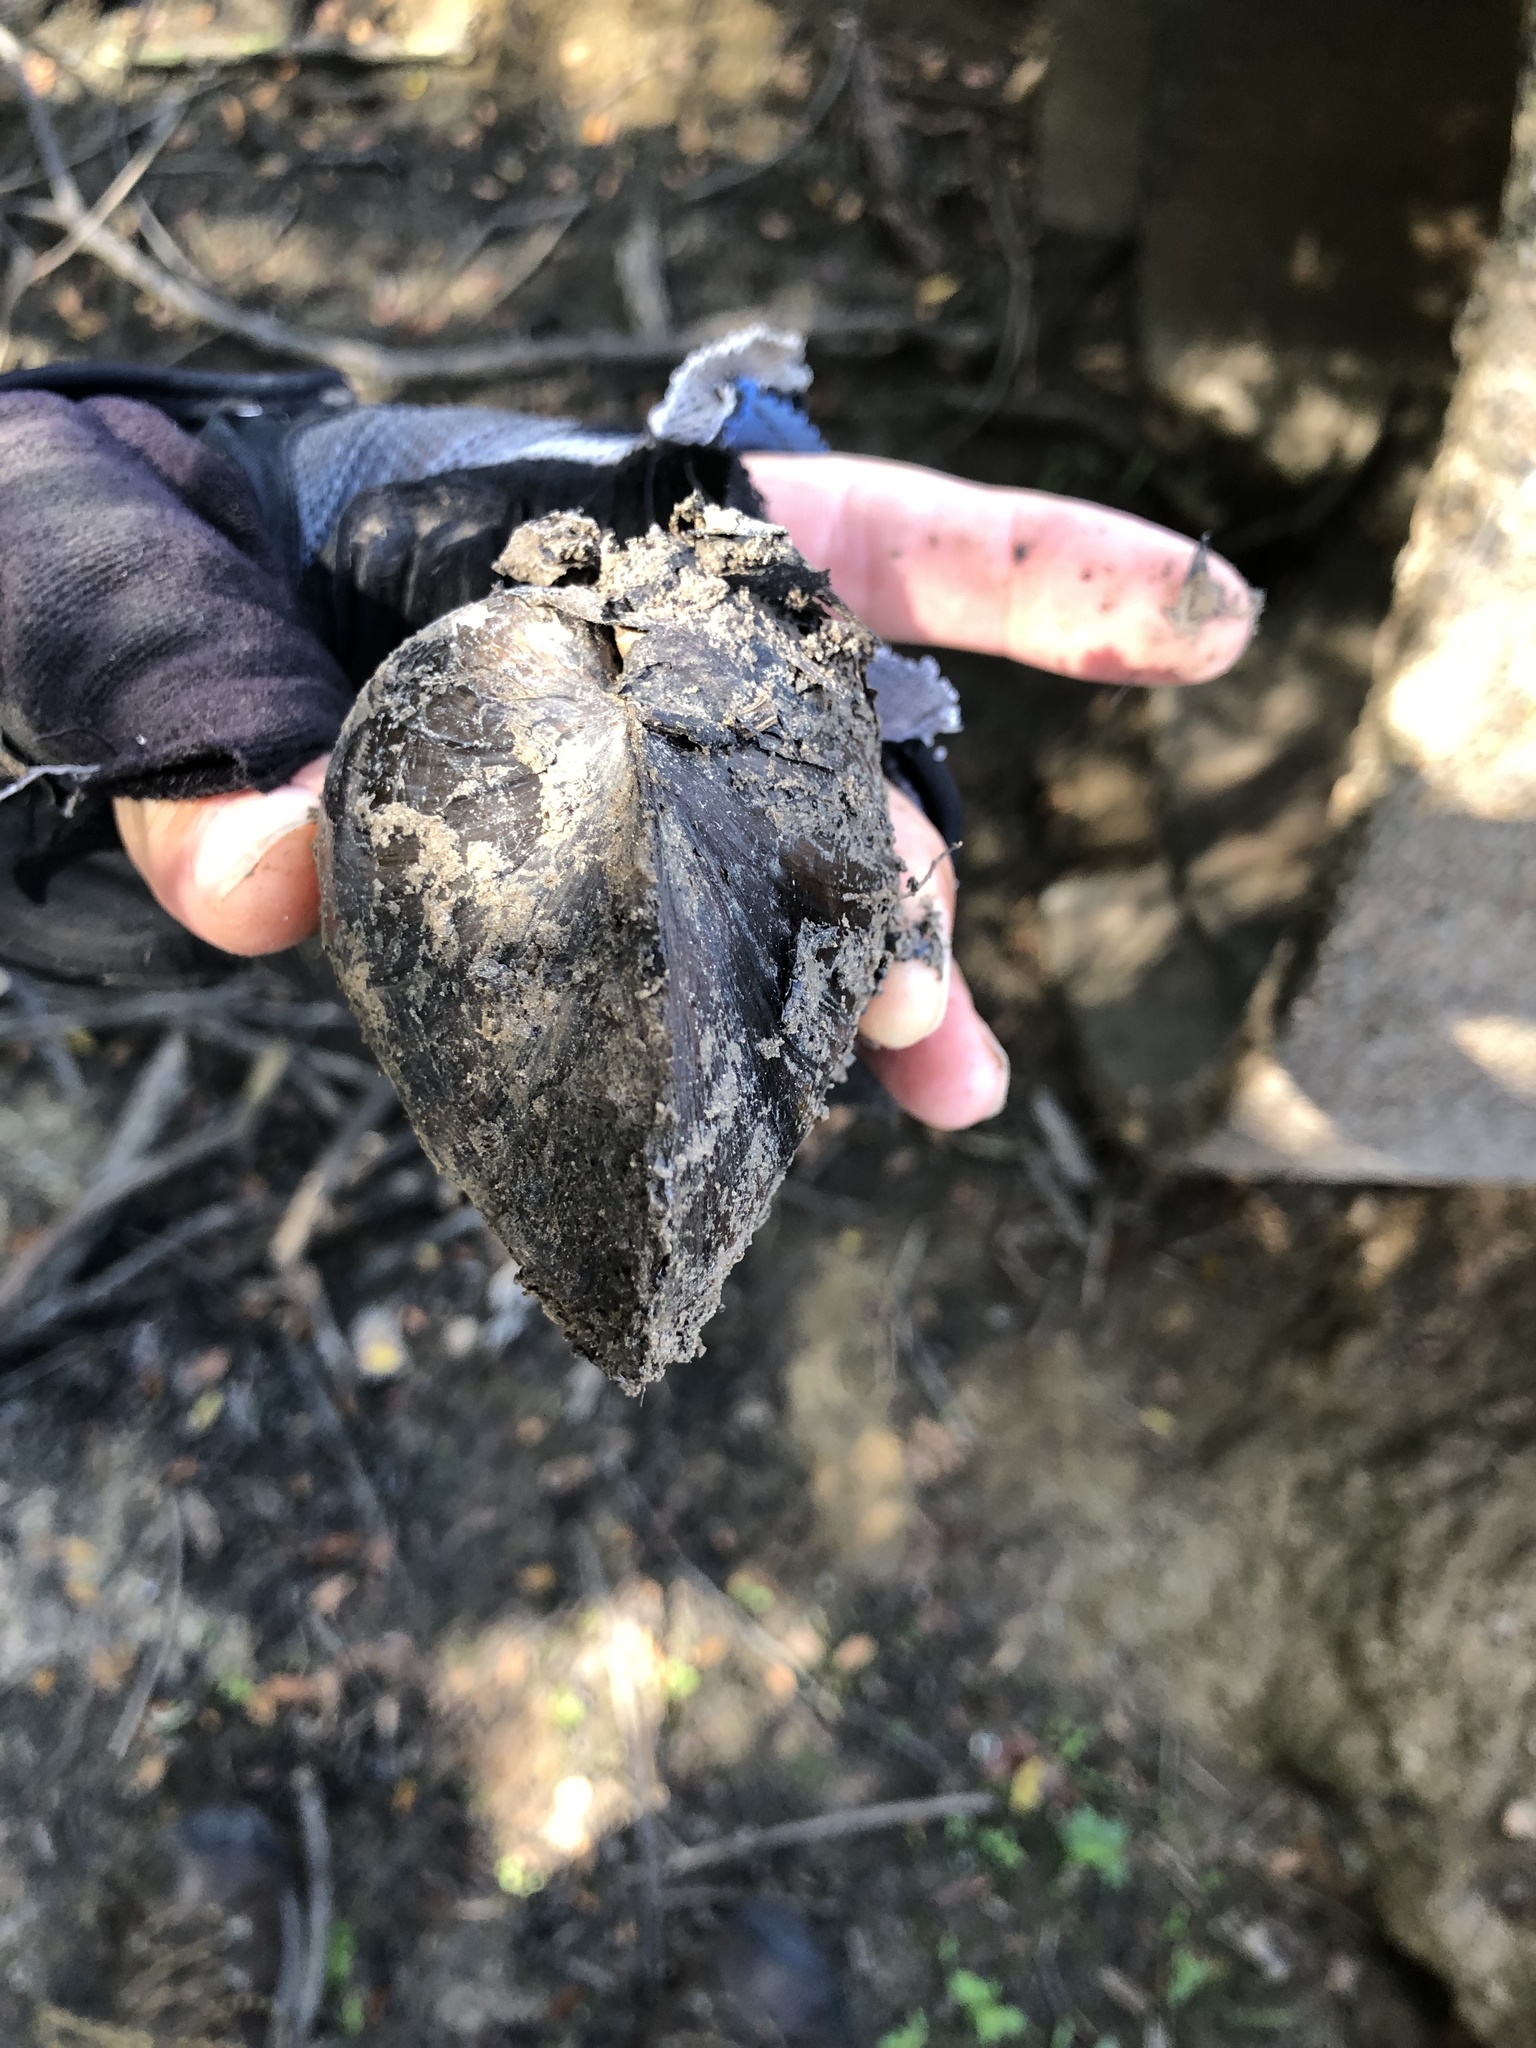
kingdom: Animalia
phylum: Mollusca
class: Bivalvia
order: Unionida
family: Unionidae
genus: Pyganodon
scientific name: Pyganodon grandis
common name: Giant floater
